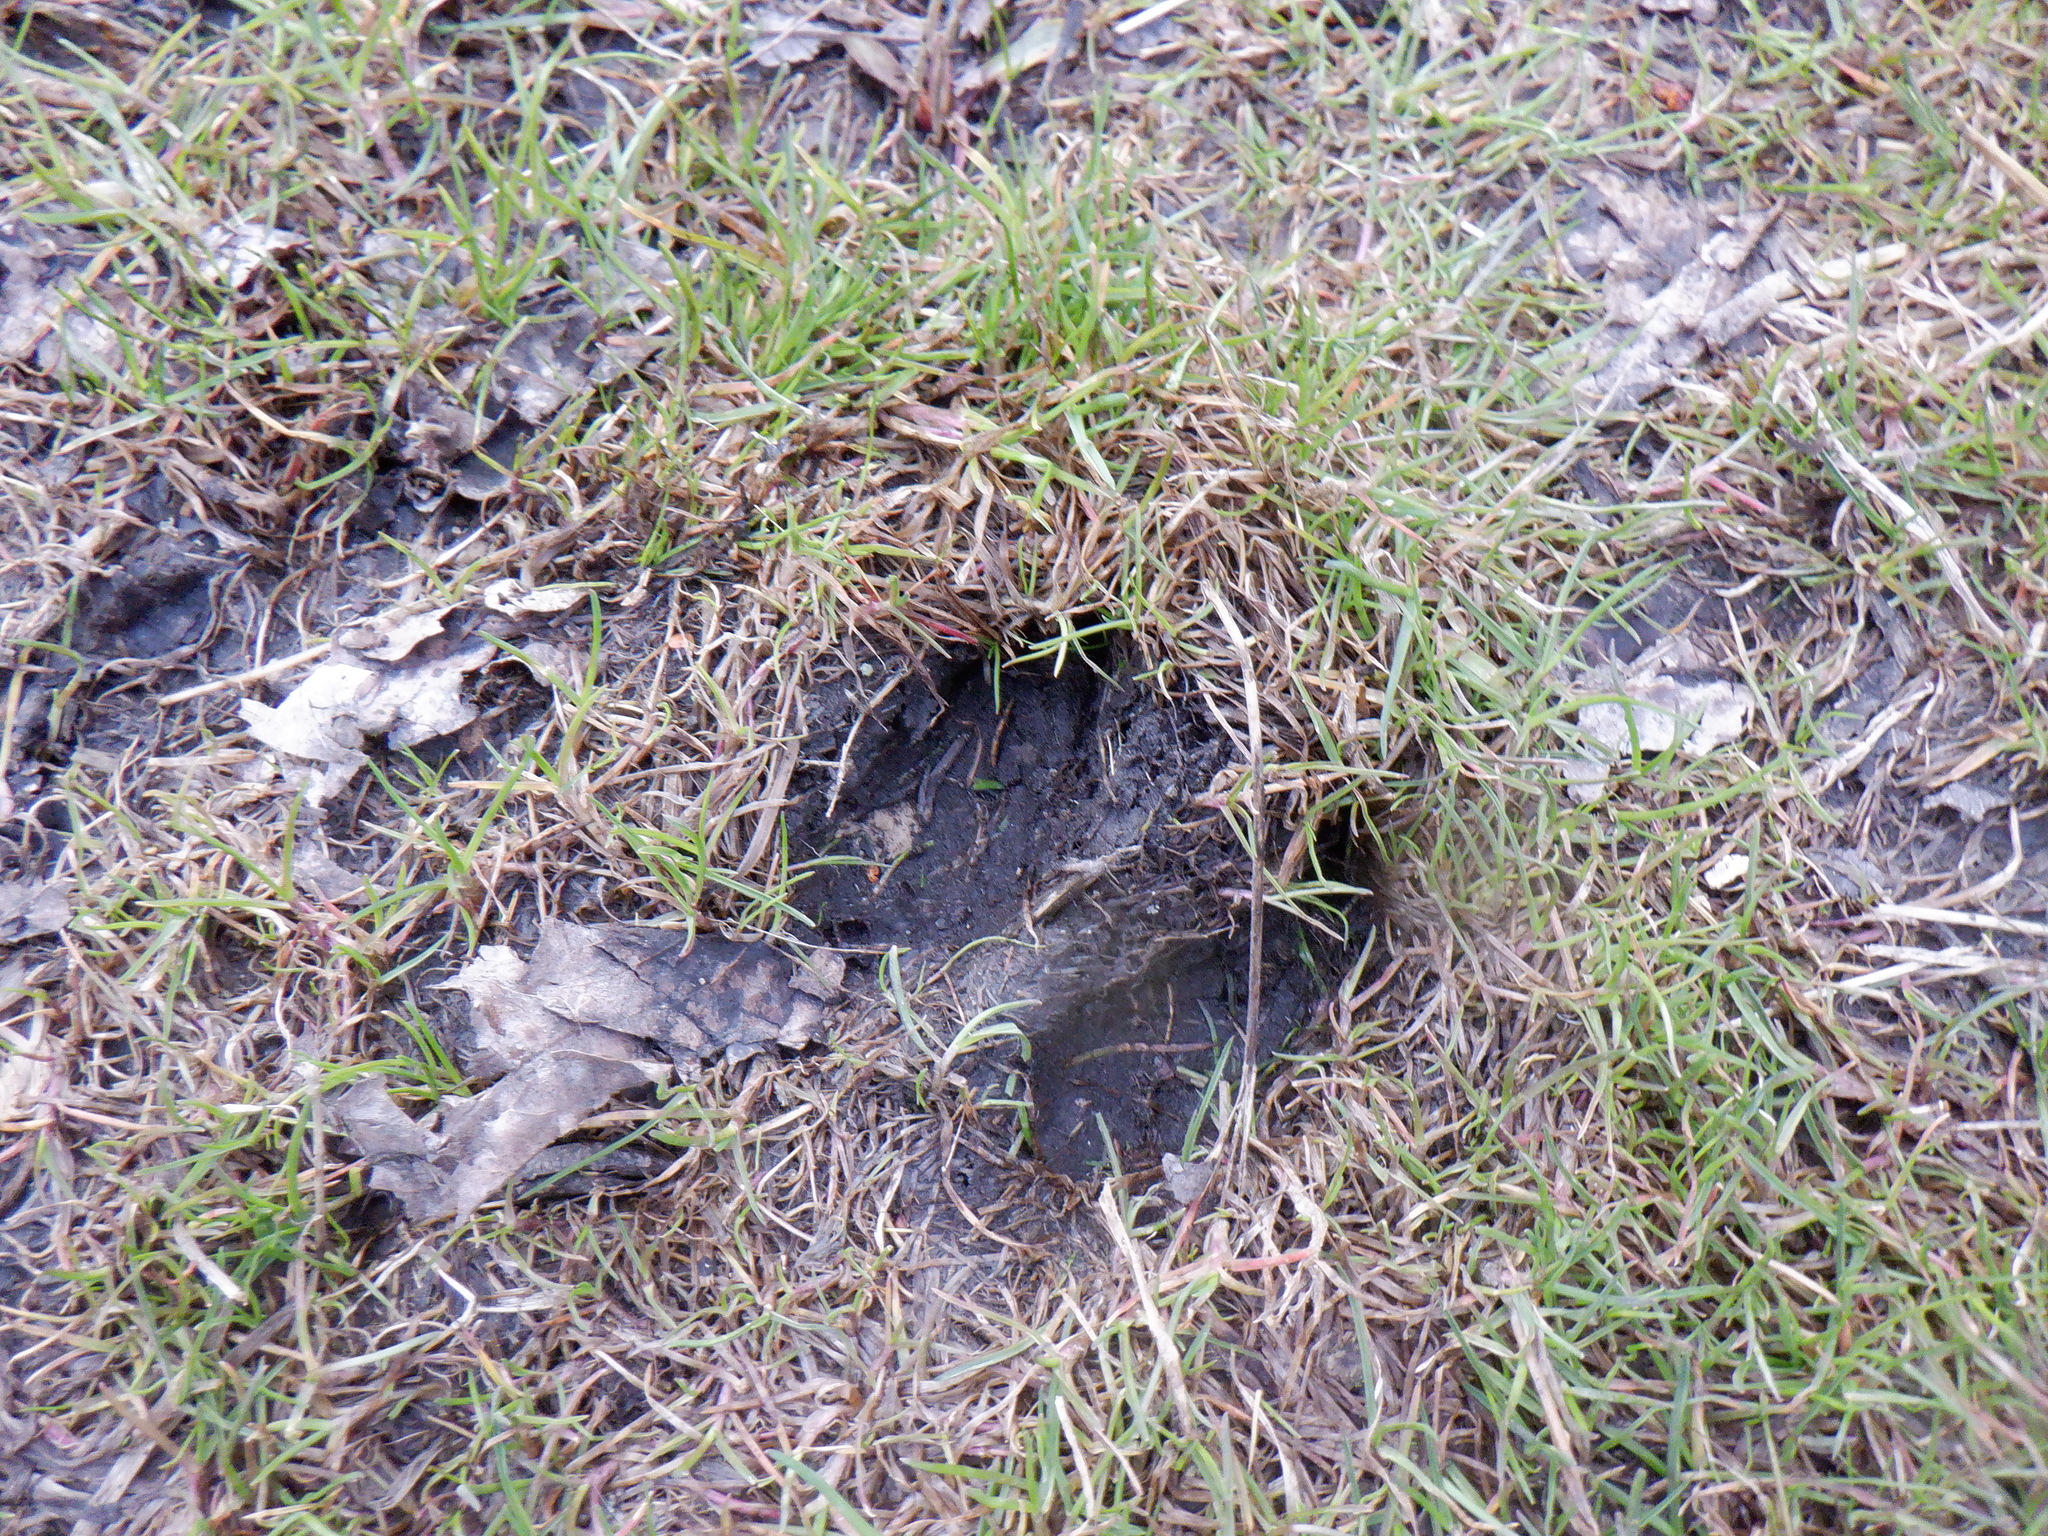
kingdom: Animalia
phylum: Chordata
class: Mammalia
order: Artiodactyla
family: Cervidae
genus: Odocoileus
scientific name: Odocoileus virginianus
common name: White-tailed deer
